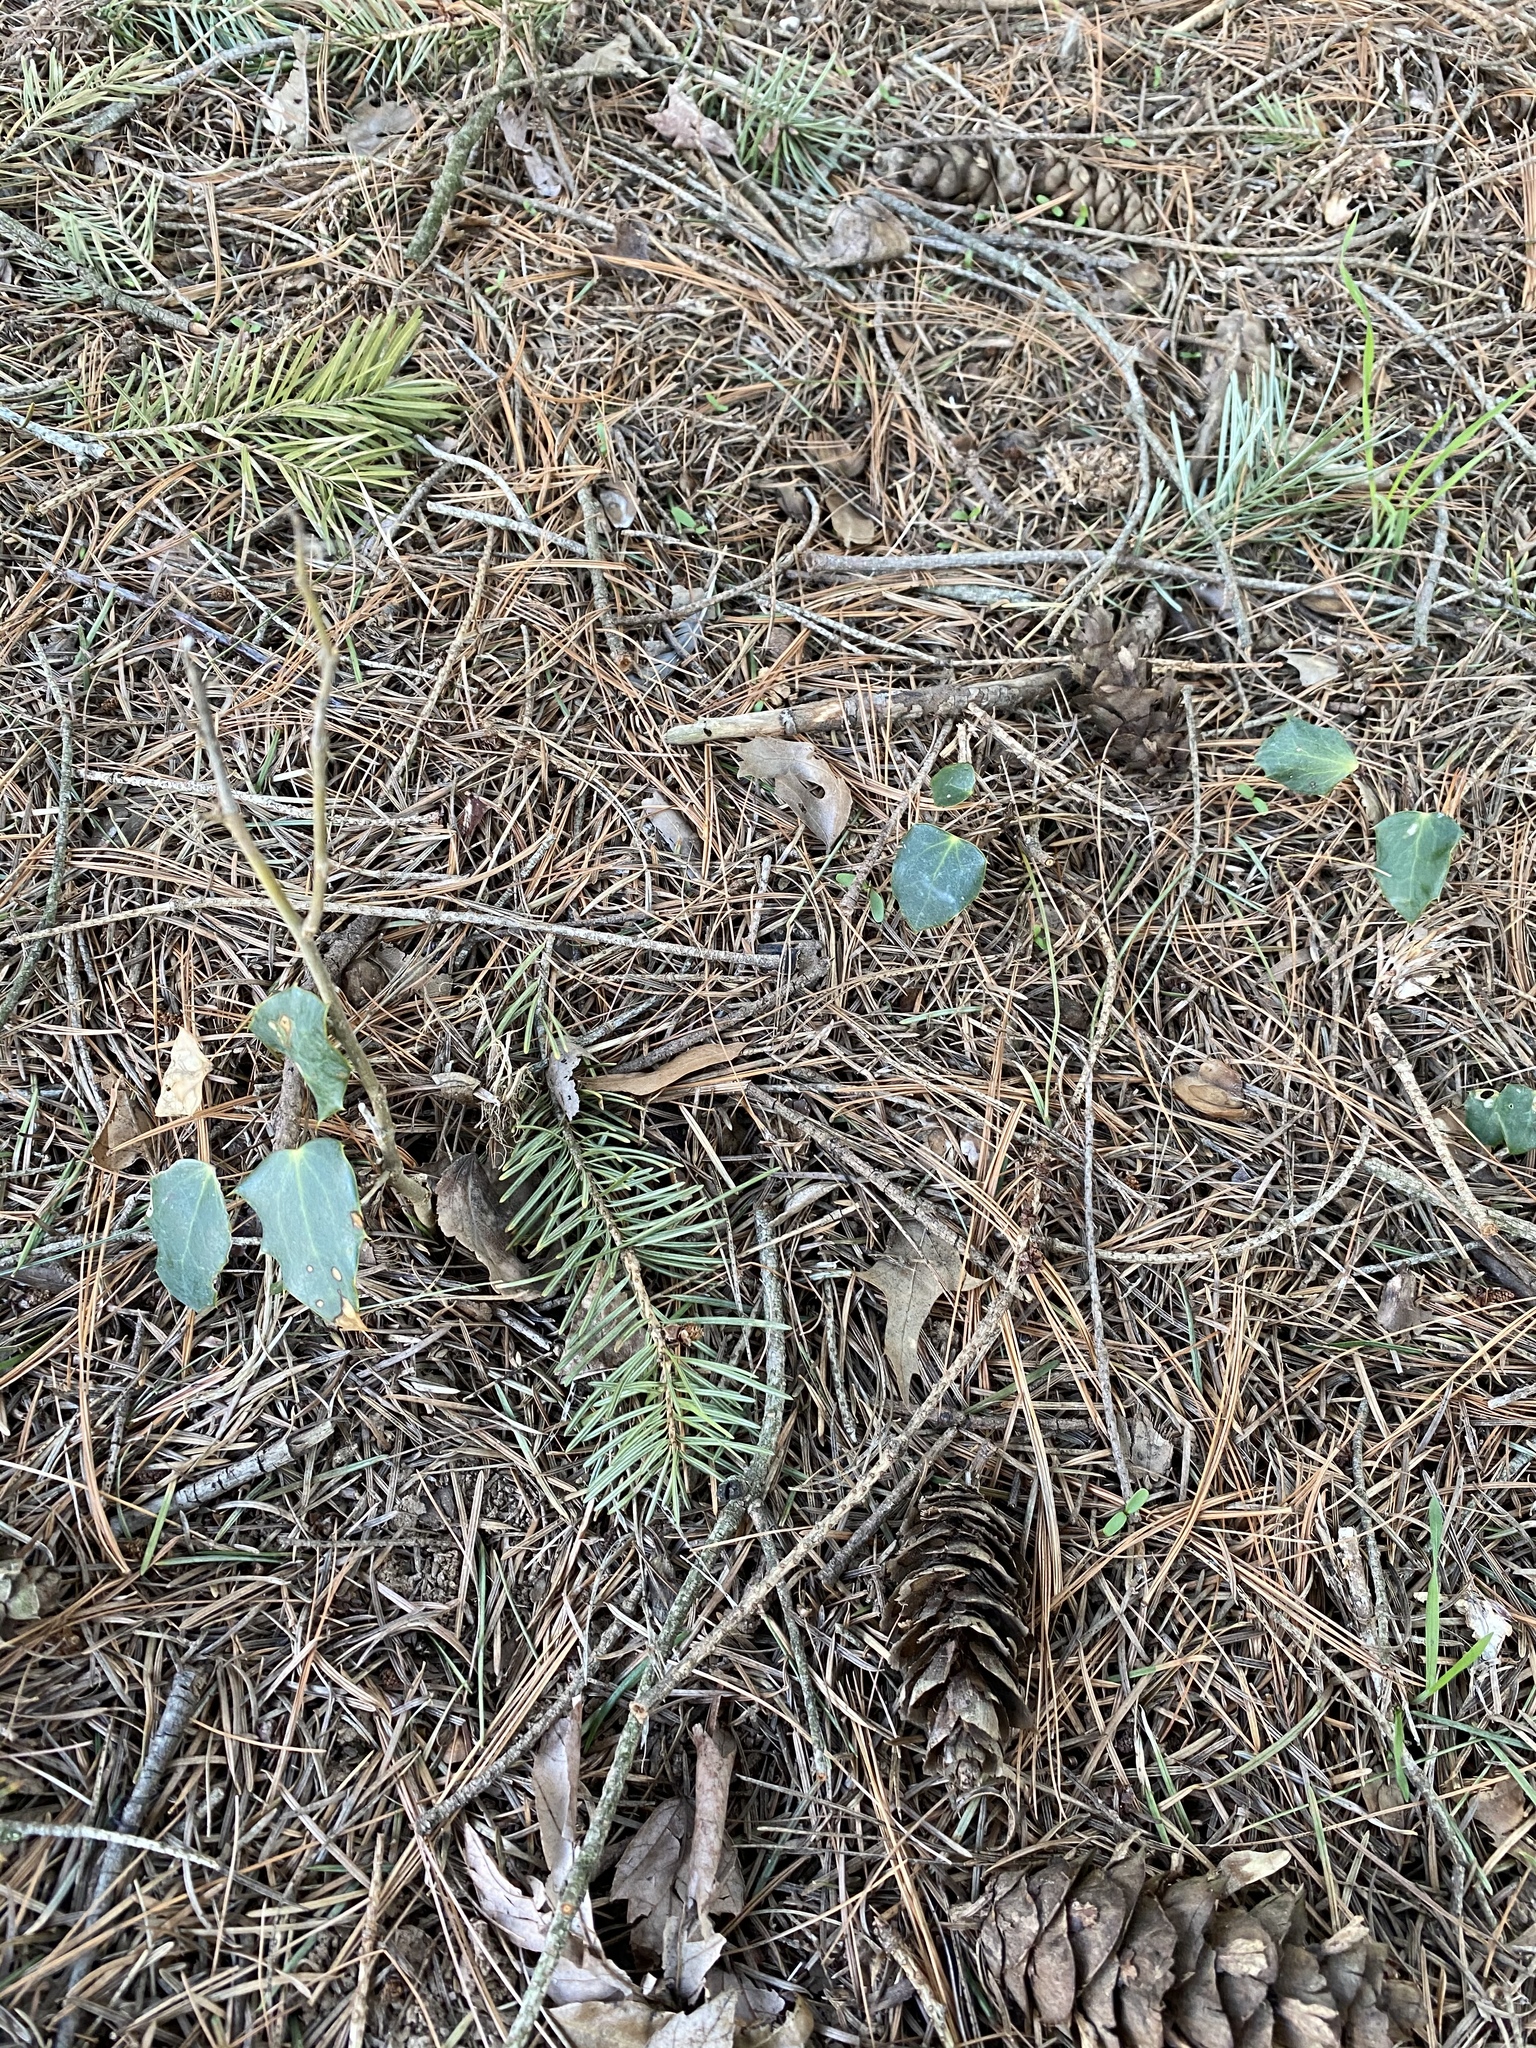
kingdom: Plantae
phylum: Tracheophyta
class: Magnoliopsida
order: Ranunculales
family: Berberidaceae
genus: Mahonia
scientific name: Mahonia bealei
